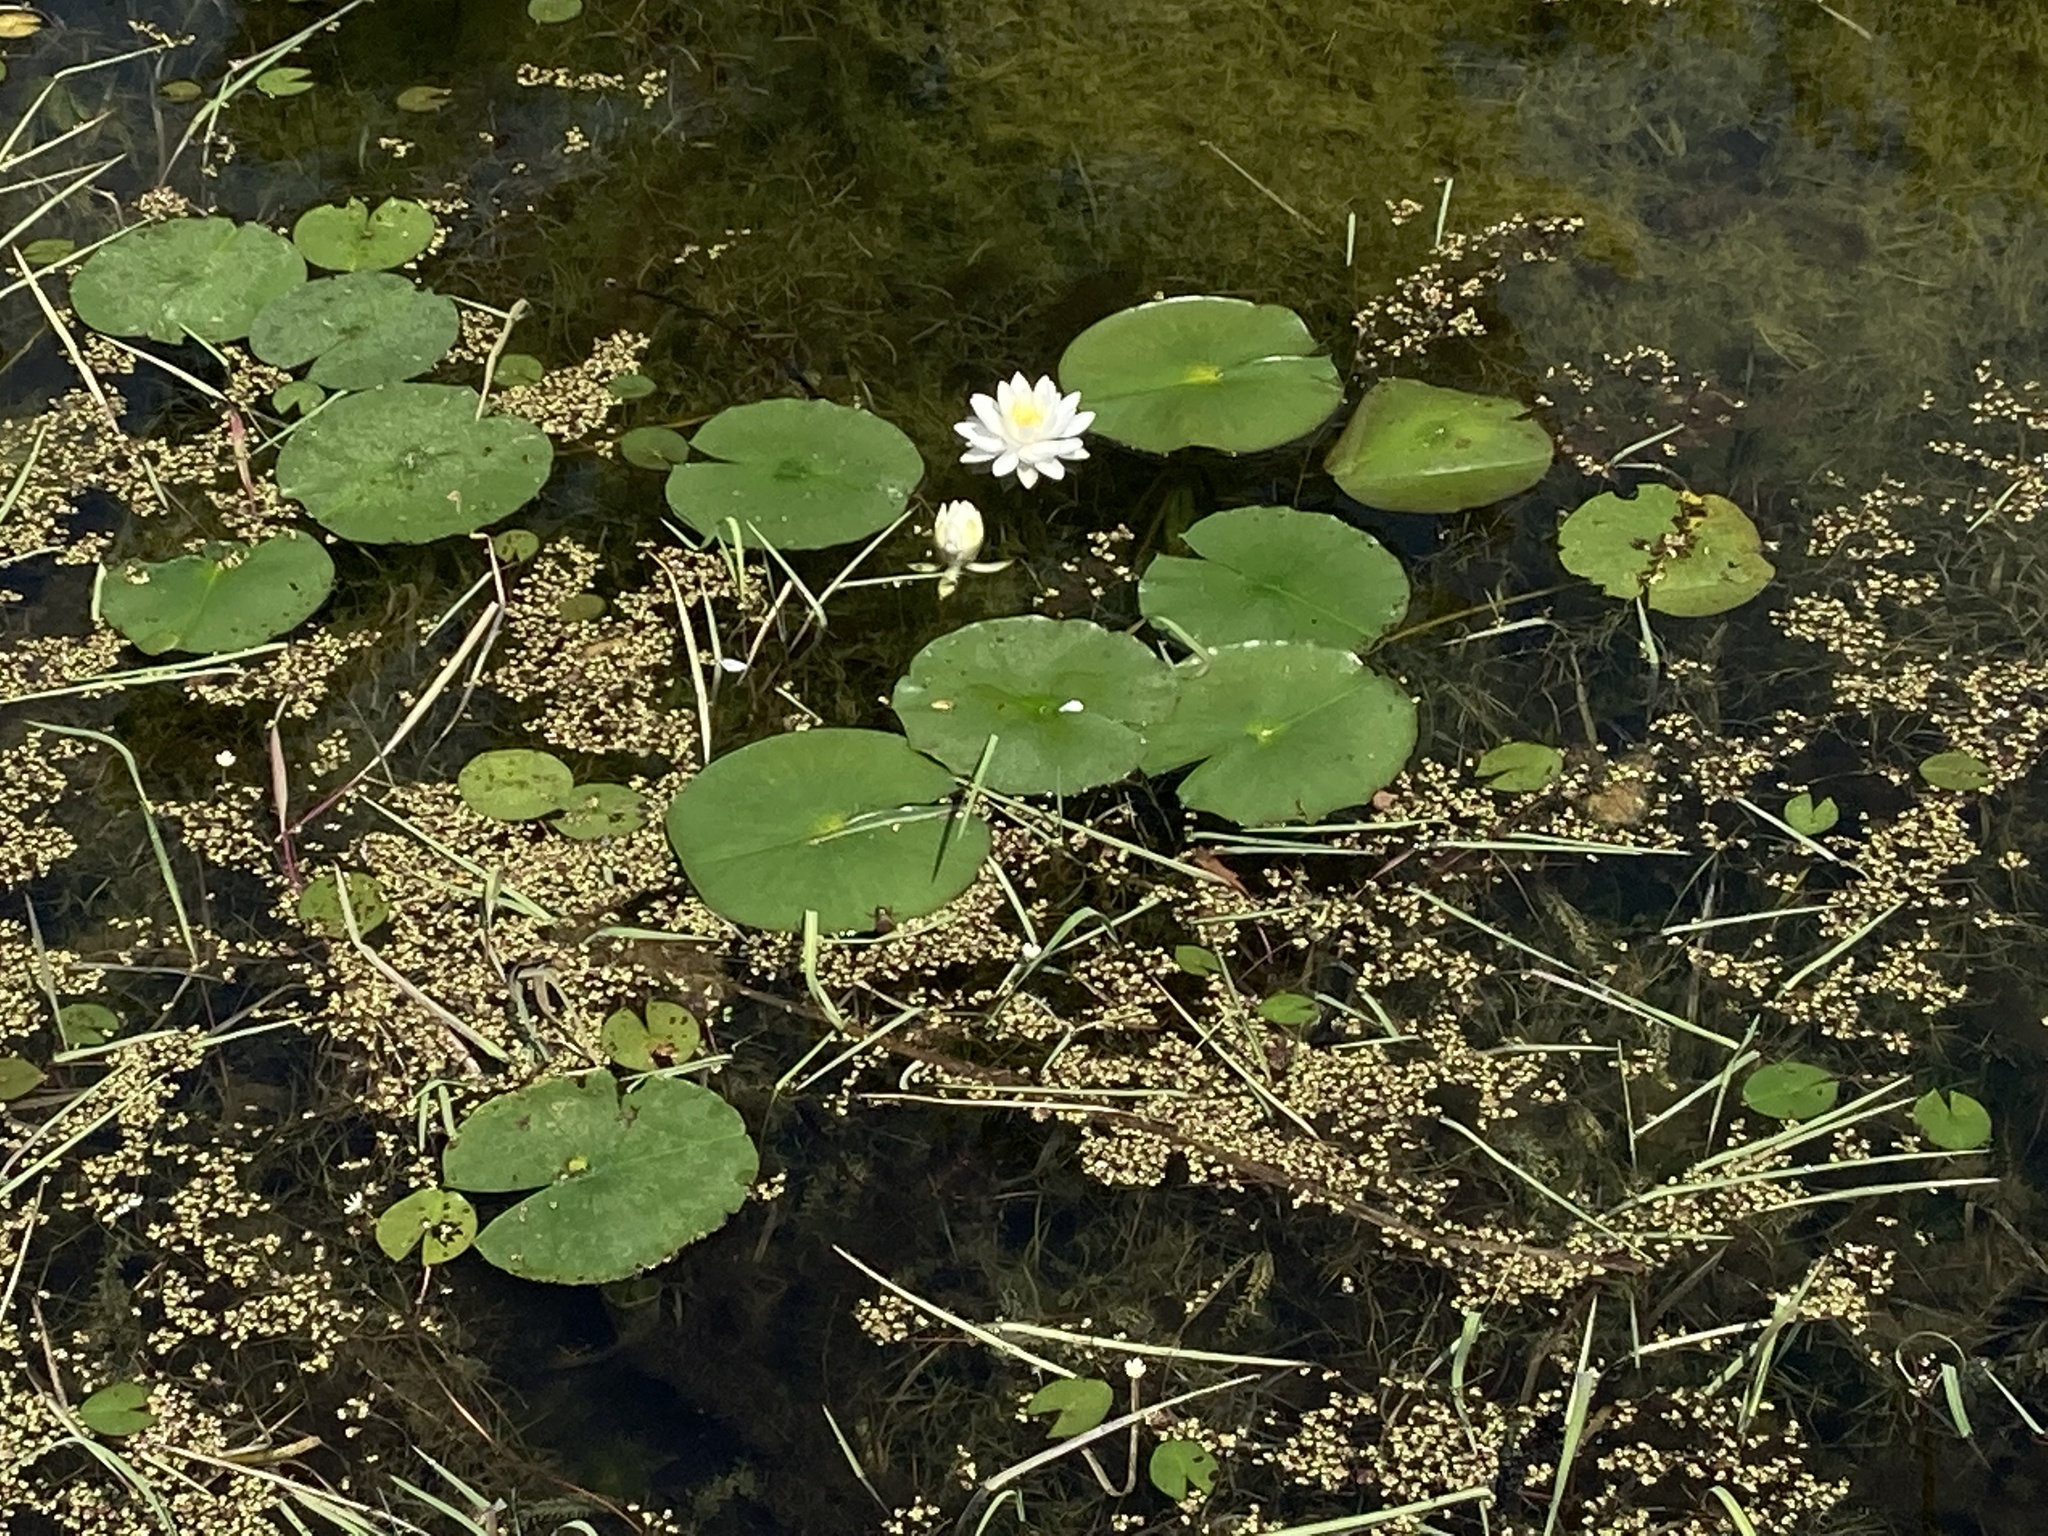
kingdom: Plantae
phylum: Tracheophyta
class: Magnoliopsida
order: Nymphaeales
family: Nymphaeaceae
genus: Nymphaea
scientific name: Nymphaea odorata
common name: Fragrant water-lily
